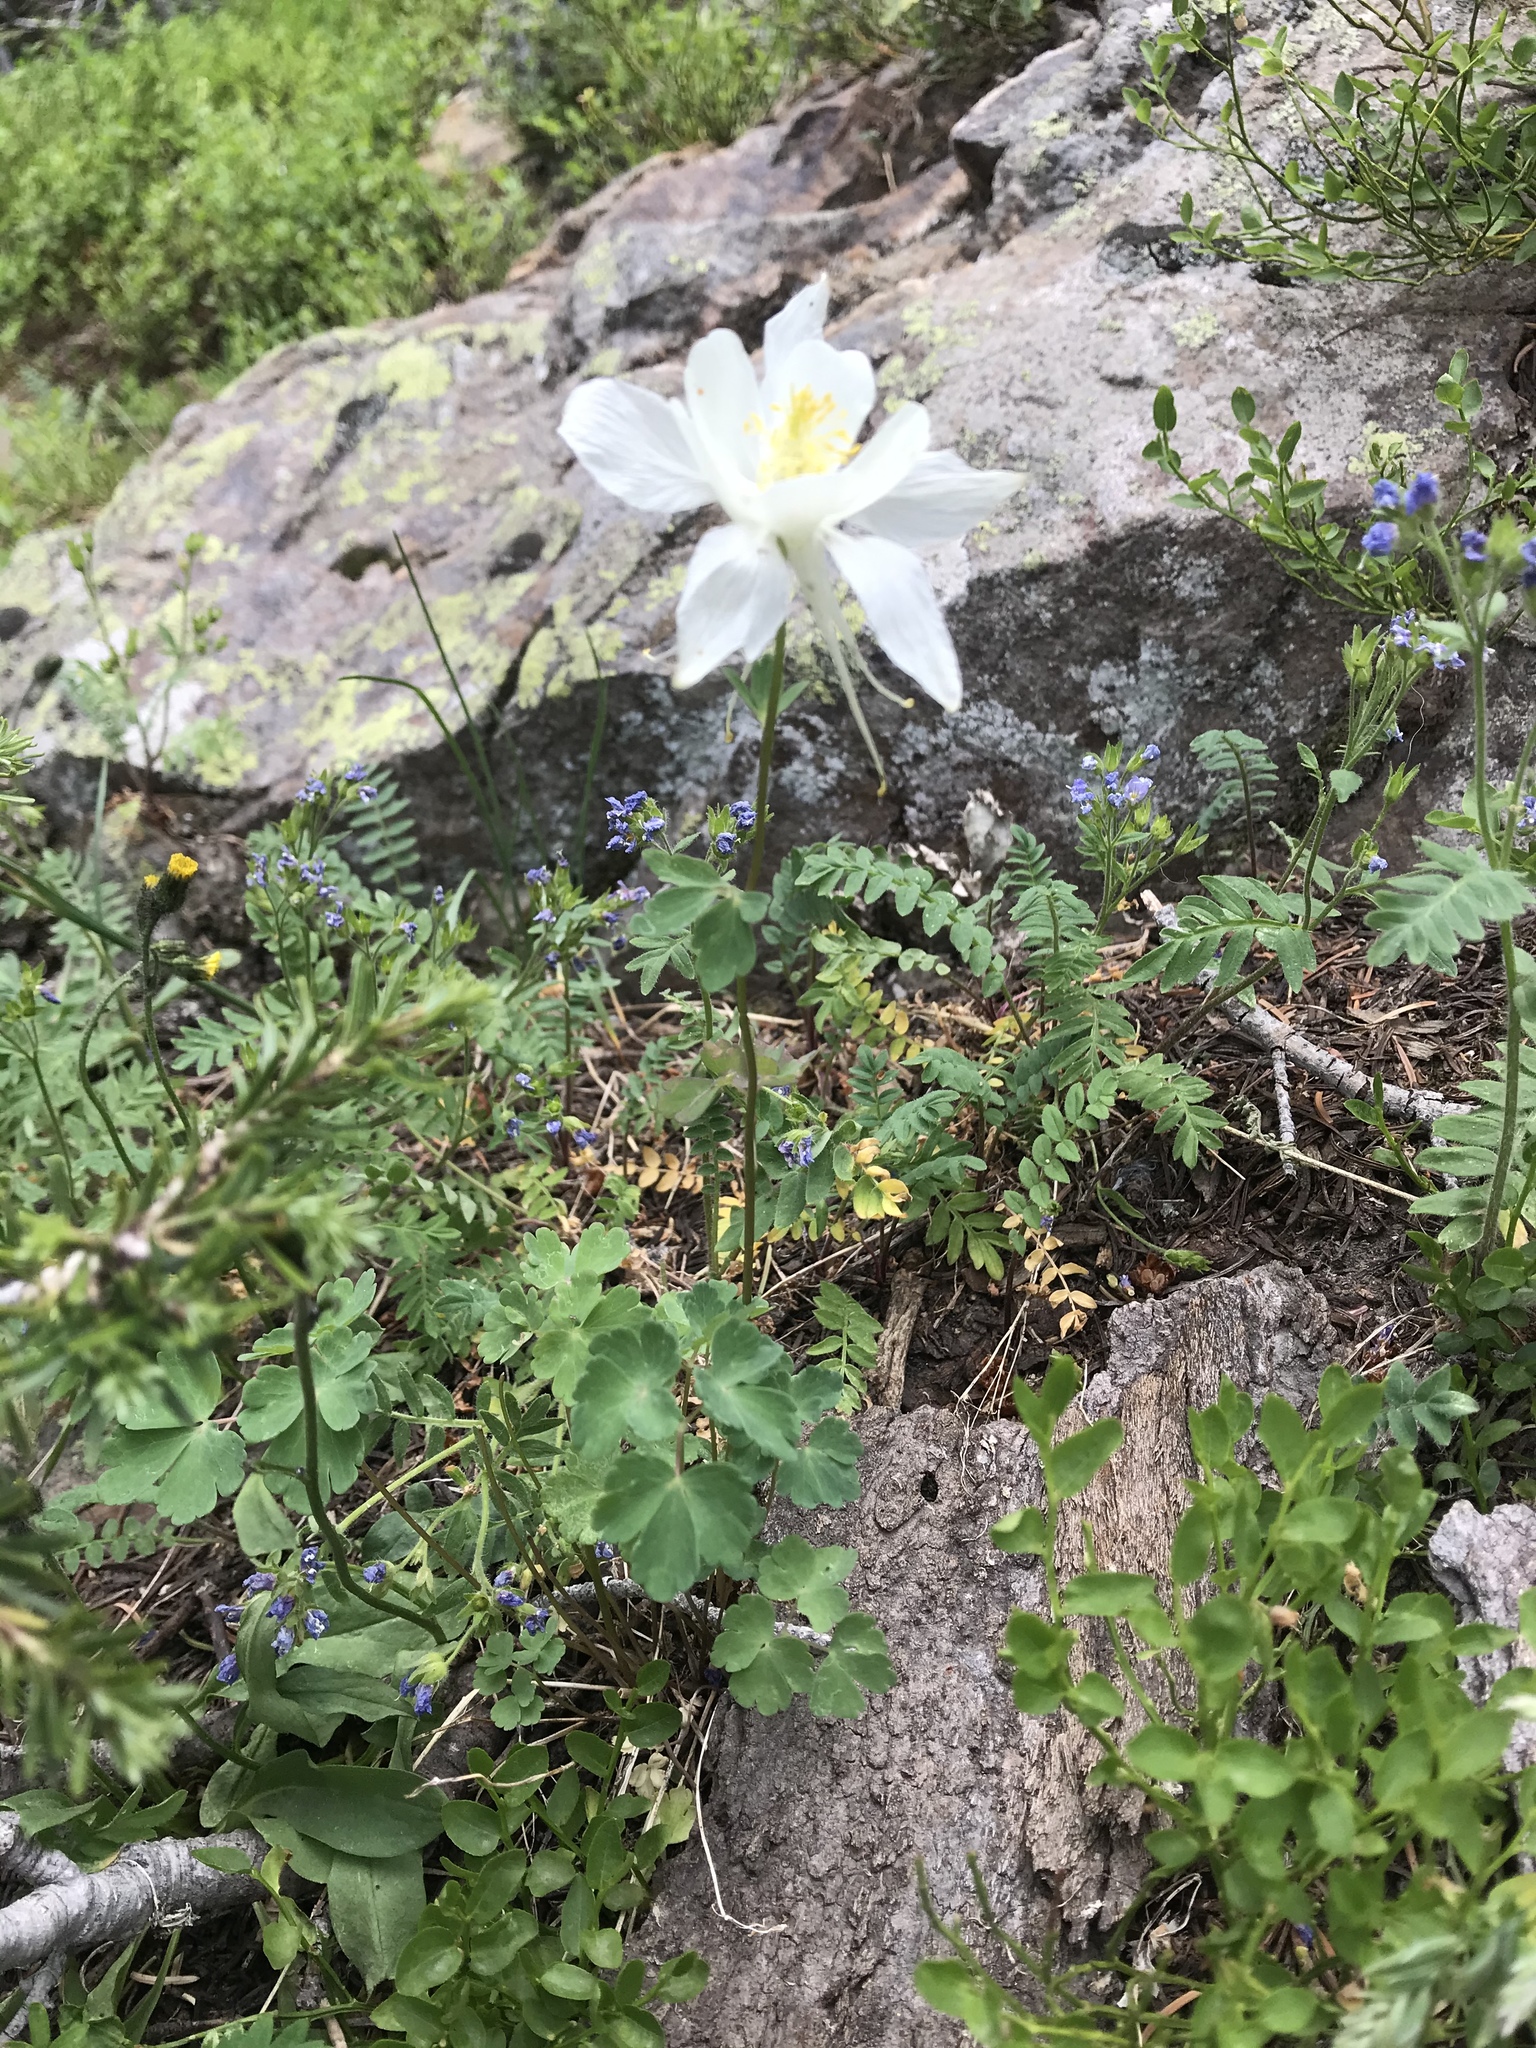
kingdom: Plantae
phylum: Tracheophyta
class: Magnoliopsida
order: Ranunculales
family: Ranunculaceae
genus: Aquilegia
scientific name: Aquilegia coerulea
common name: Rocky mountain columbine
